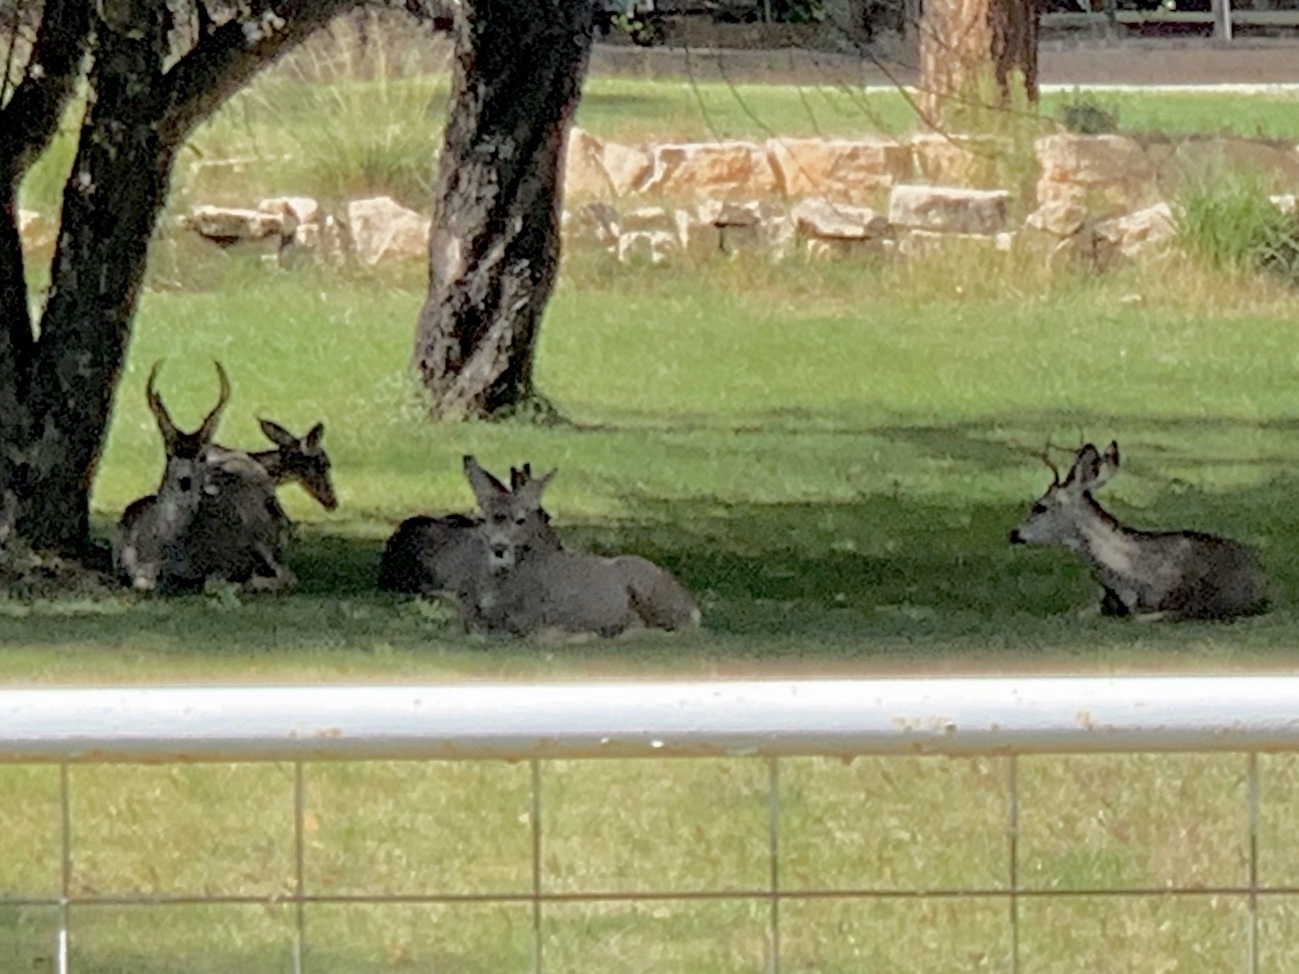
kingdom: Animalia
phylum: Chordata
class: Mammalia
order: Artiodactyla
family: Cervidae
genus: Odocoileus
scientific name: Odocoileus hemionus
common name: Mule deer
